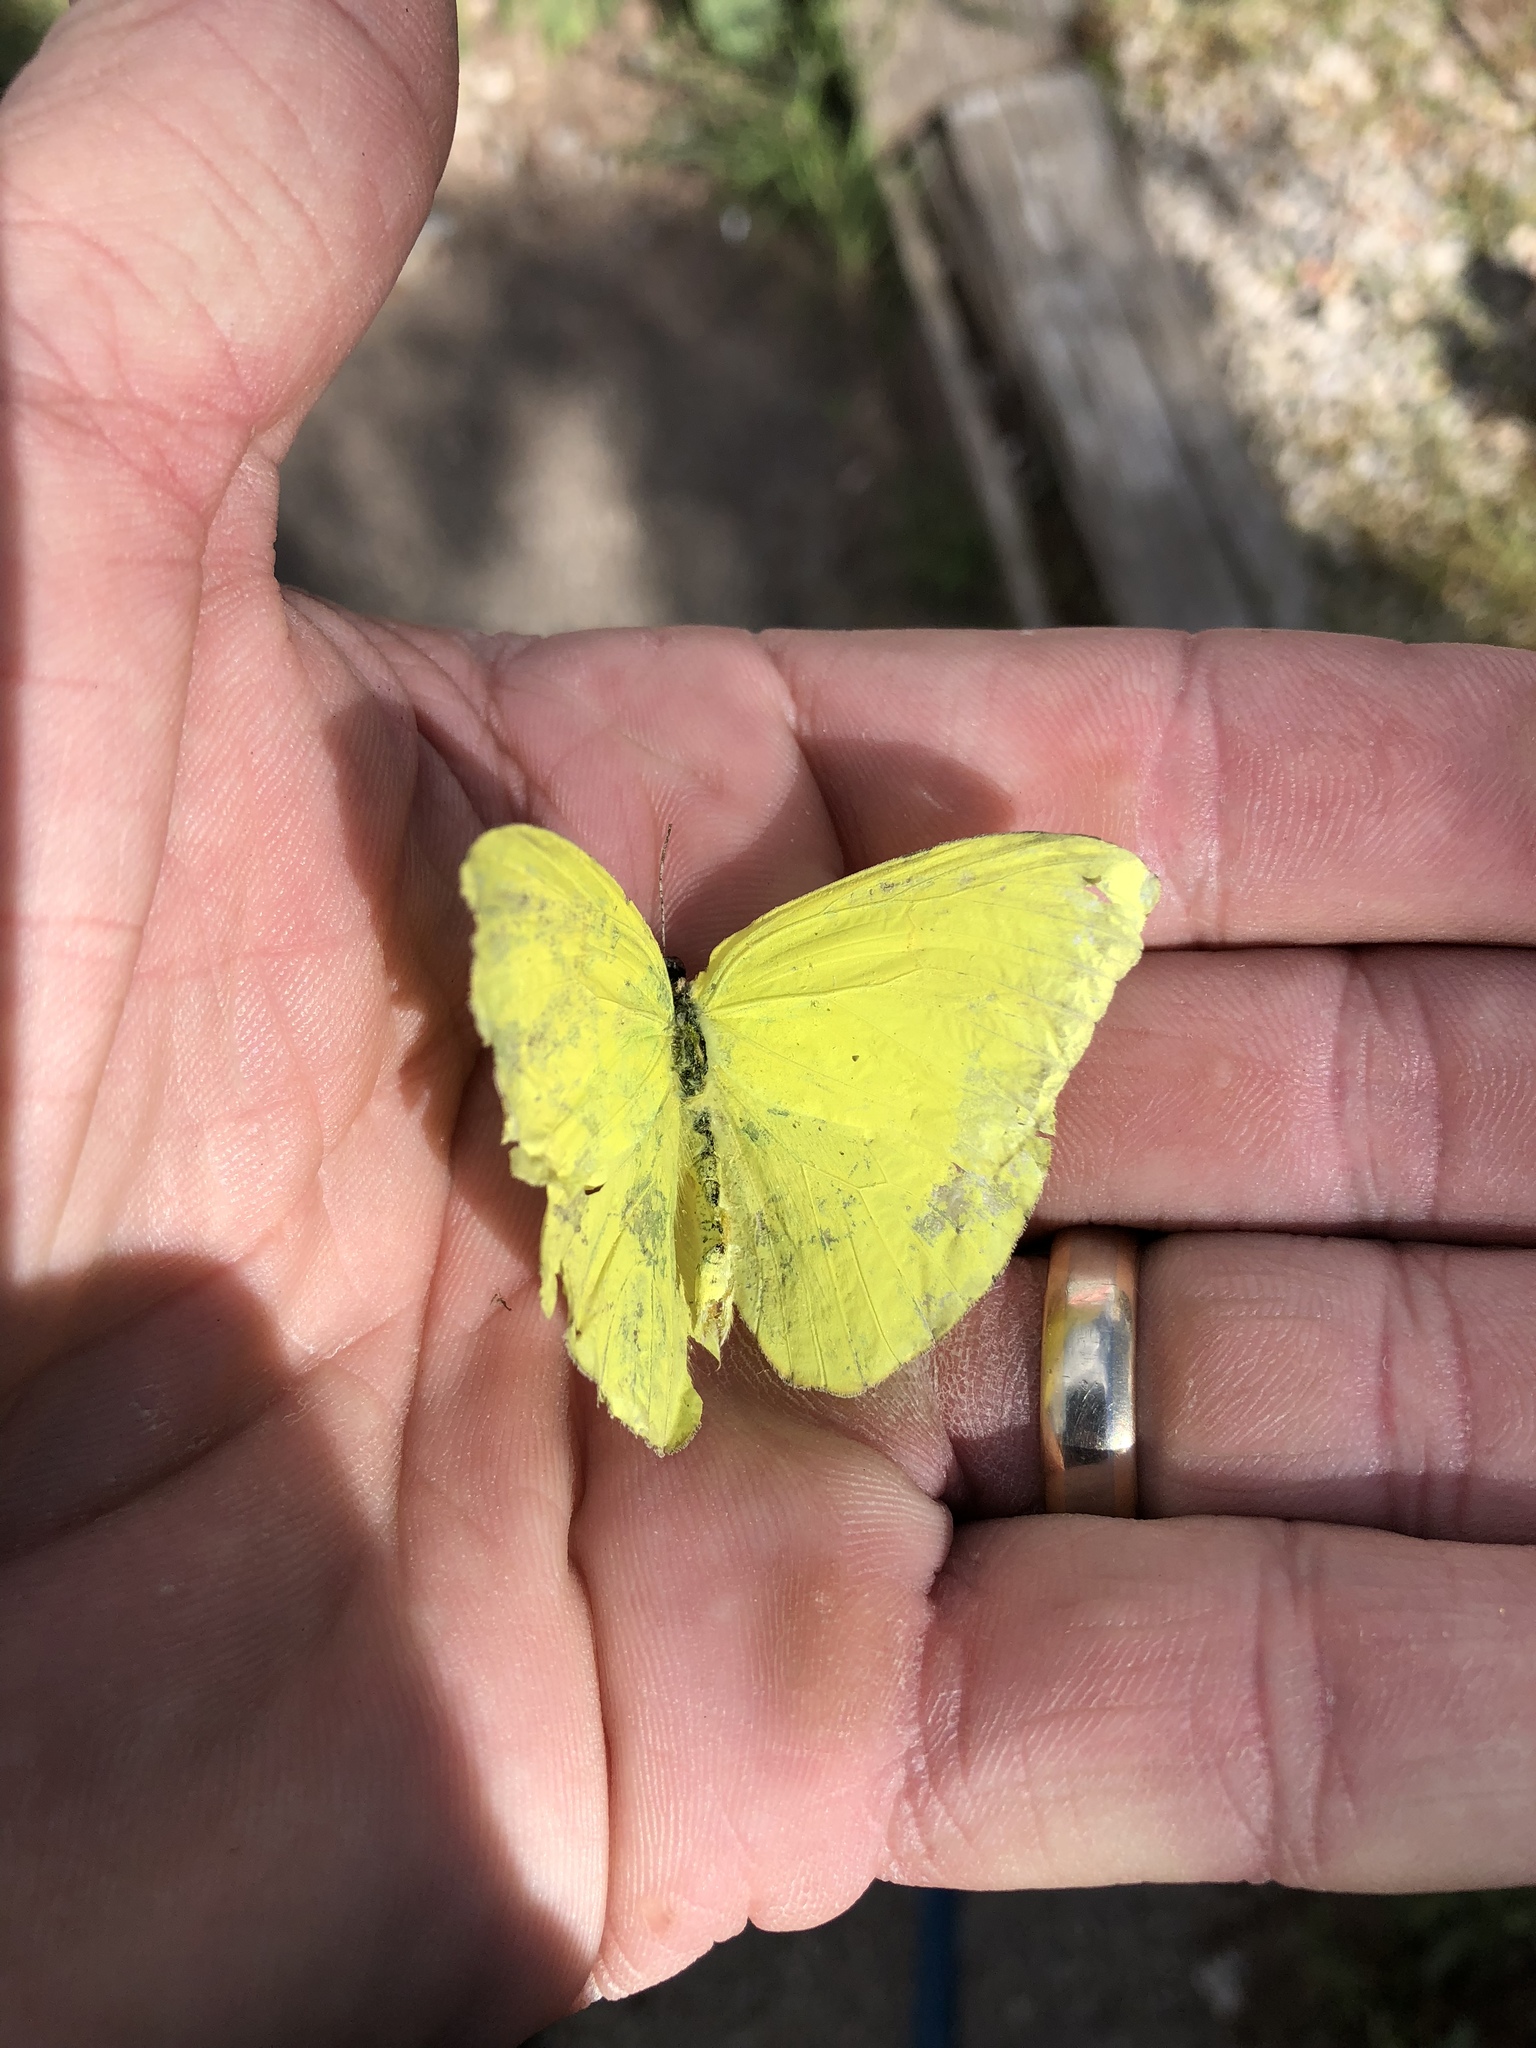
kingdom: Animalia
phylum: Arthropoda
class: Insecta
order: Lepidoptera
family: Pieridae
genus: Phoebis
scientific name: Phoebis sennae
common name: Cloudless sulphur
